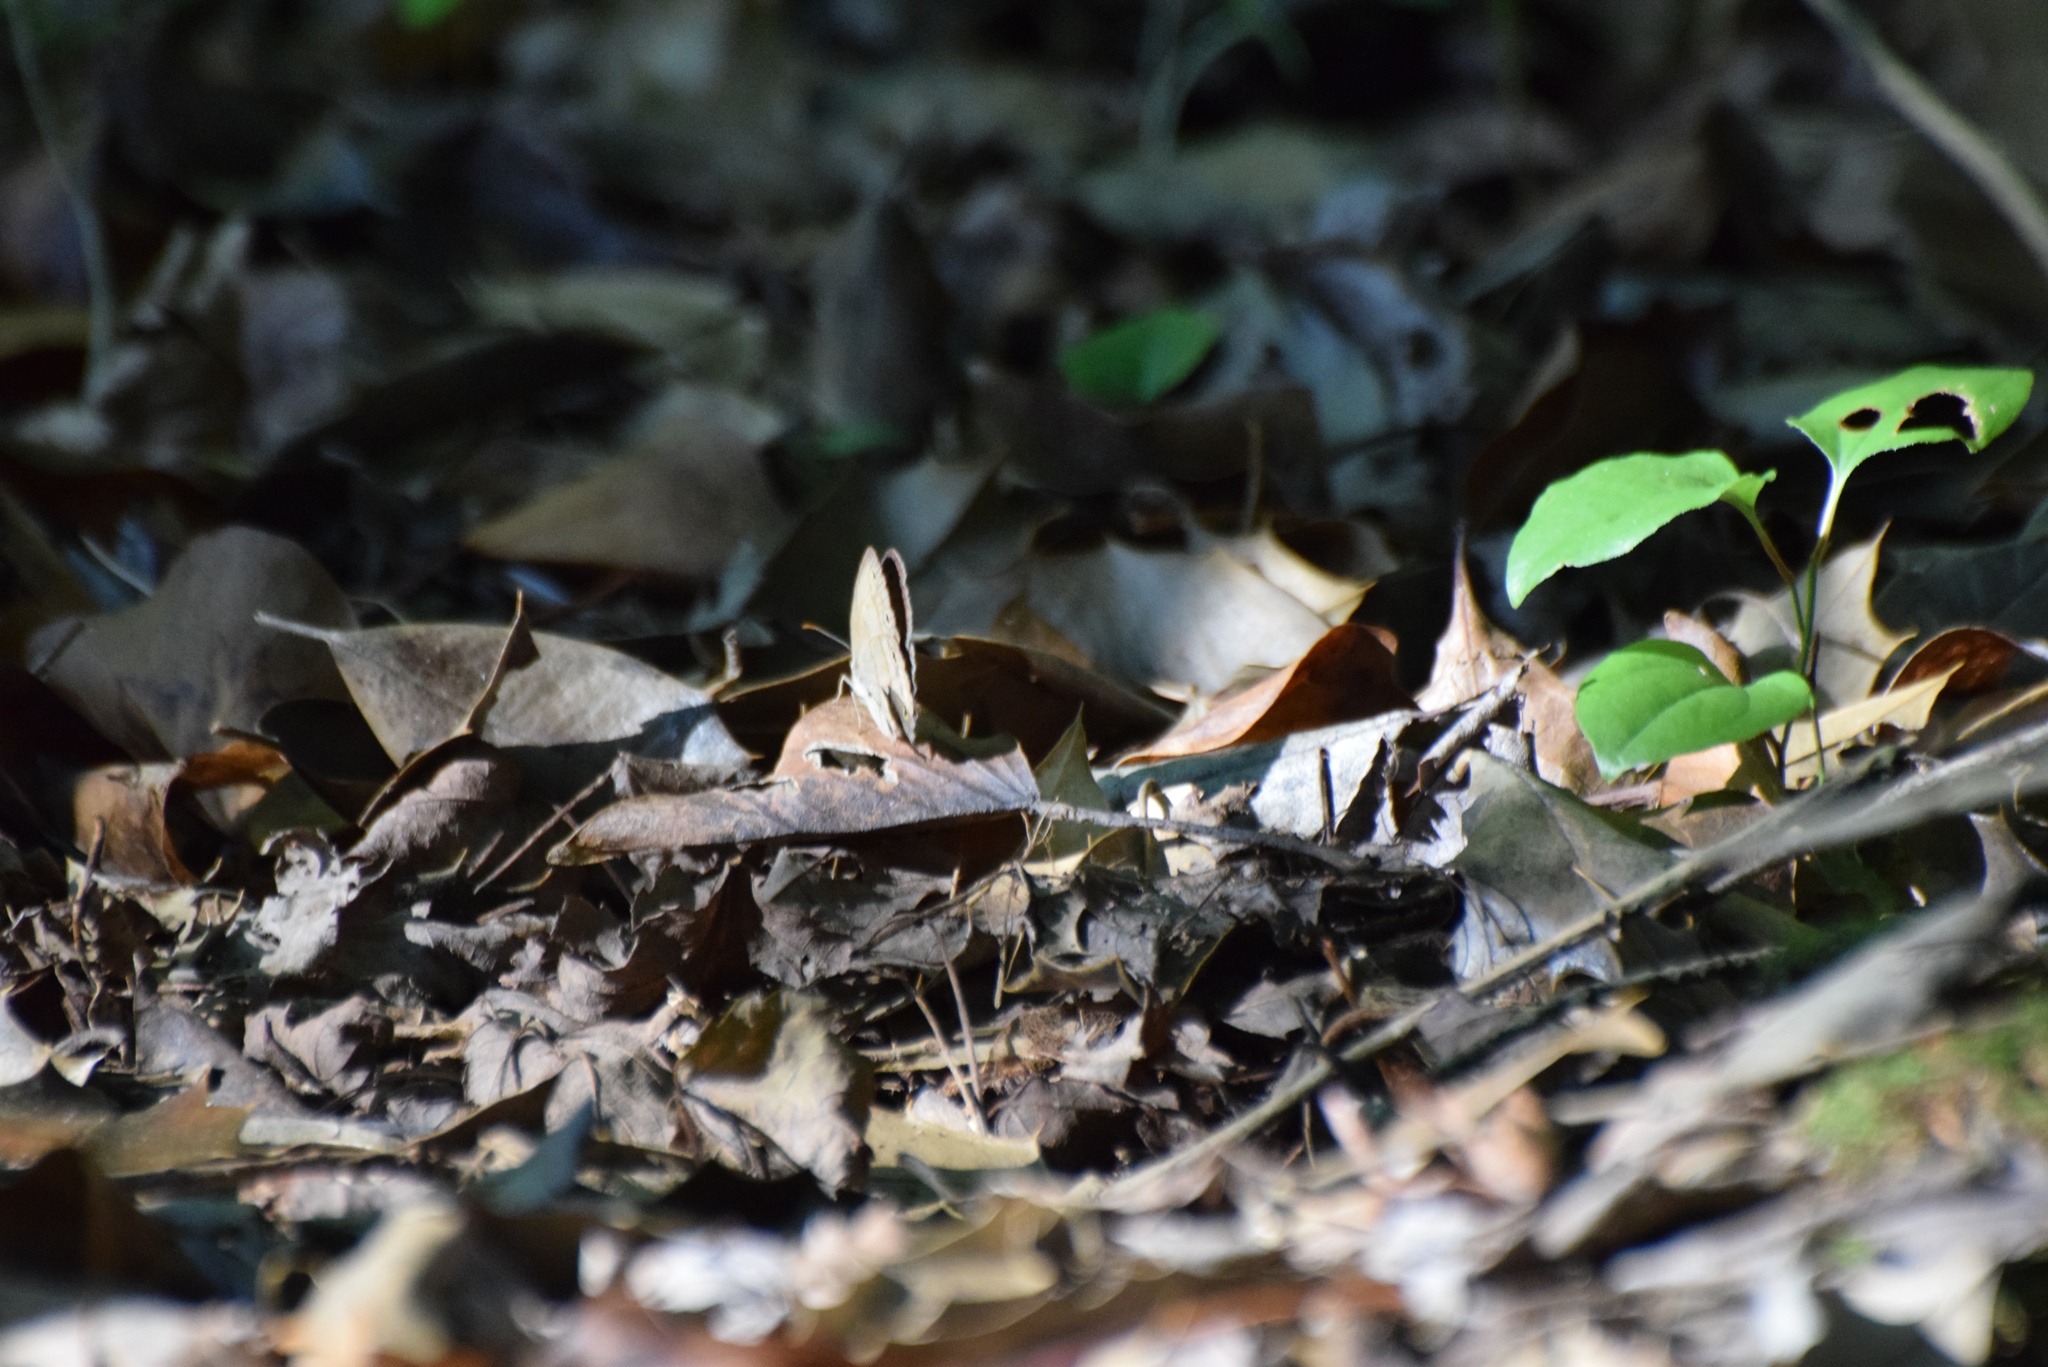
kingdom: Animalia
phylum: Arthropoda
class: Insecta
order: Lepidoptera
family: Nymphalidae
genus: Euptychia
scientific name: Euptychia cymela
